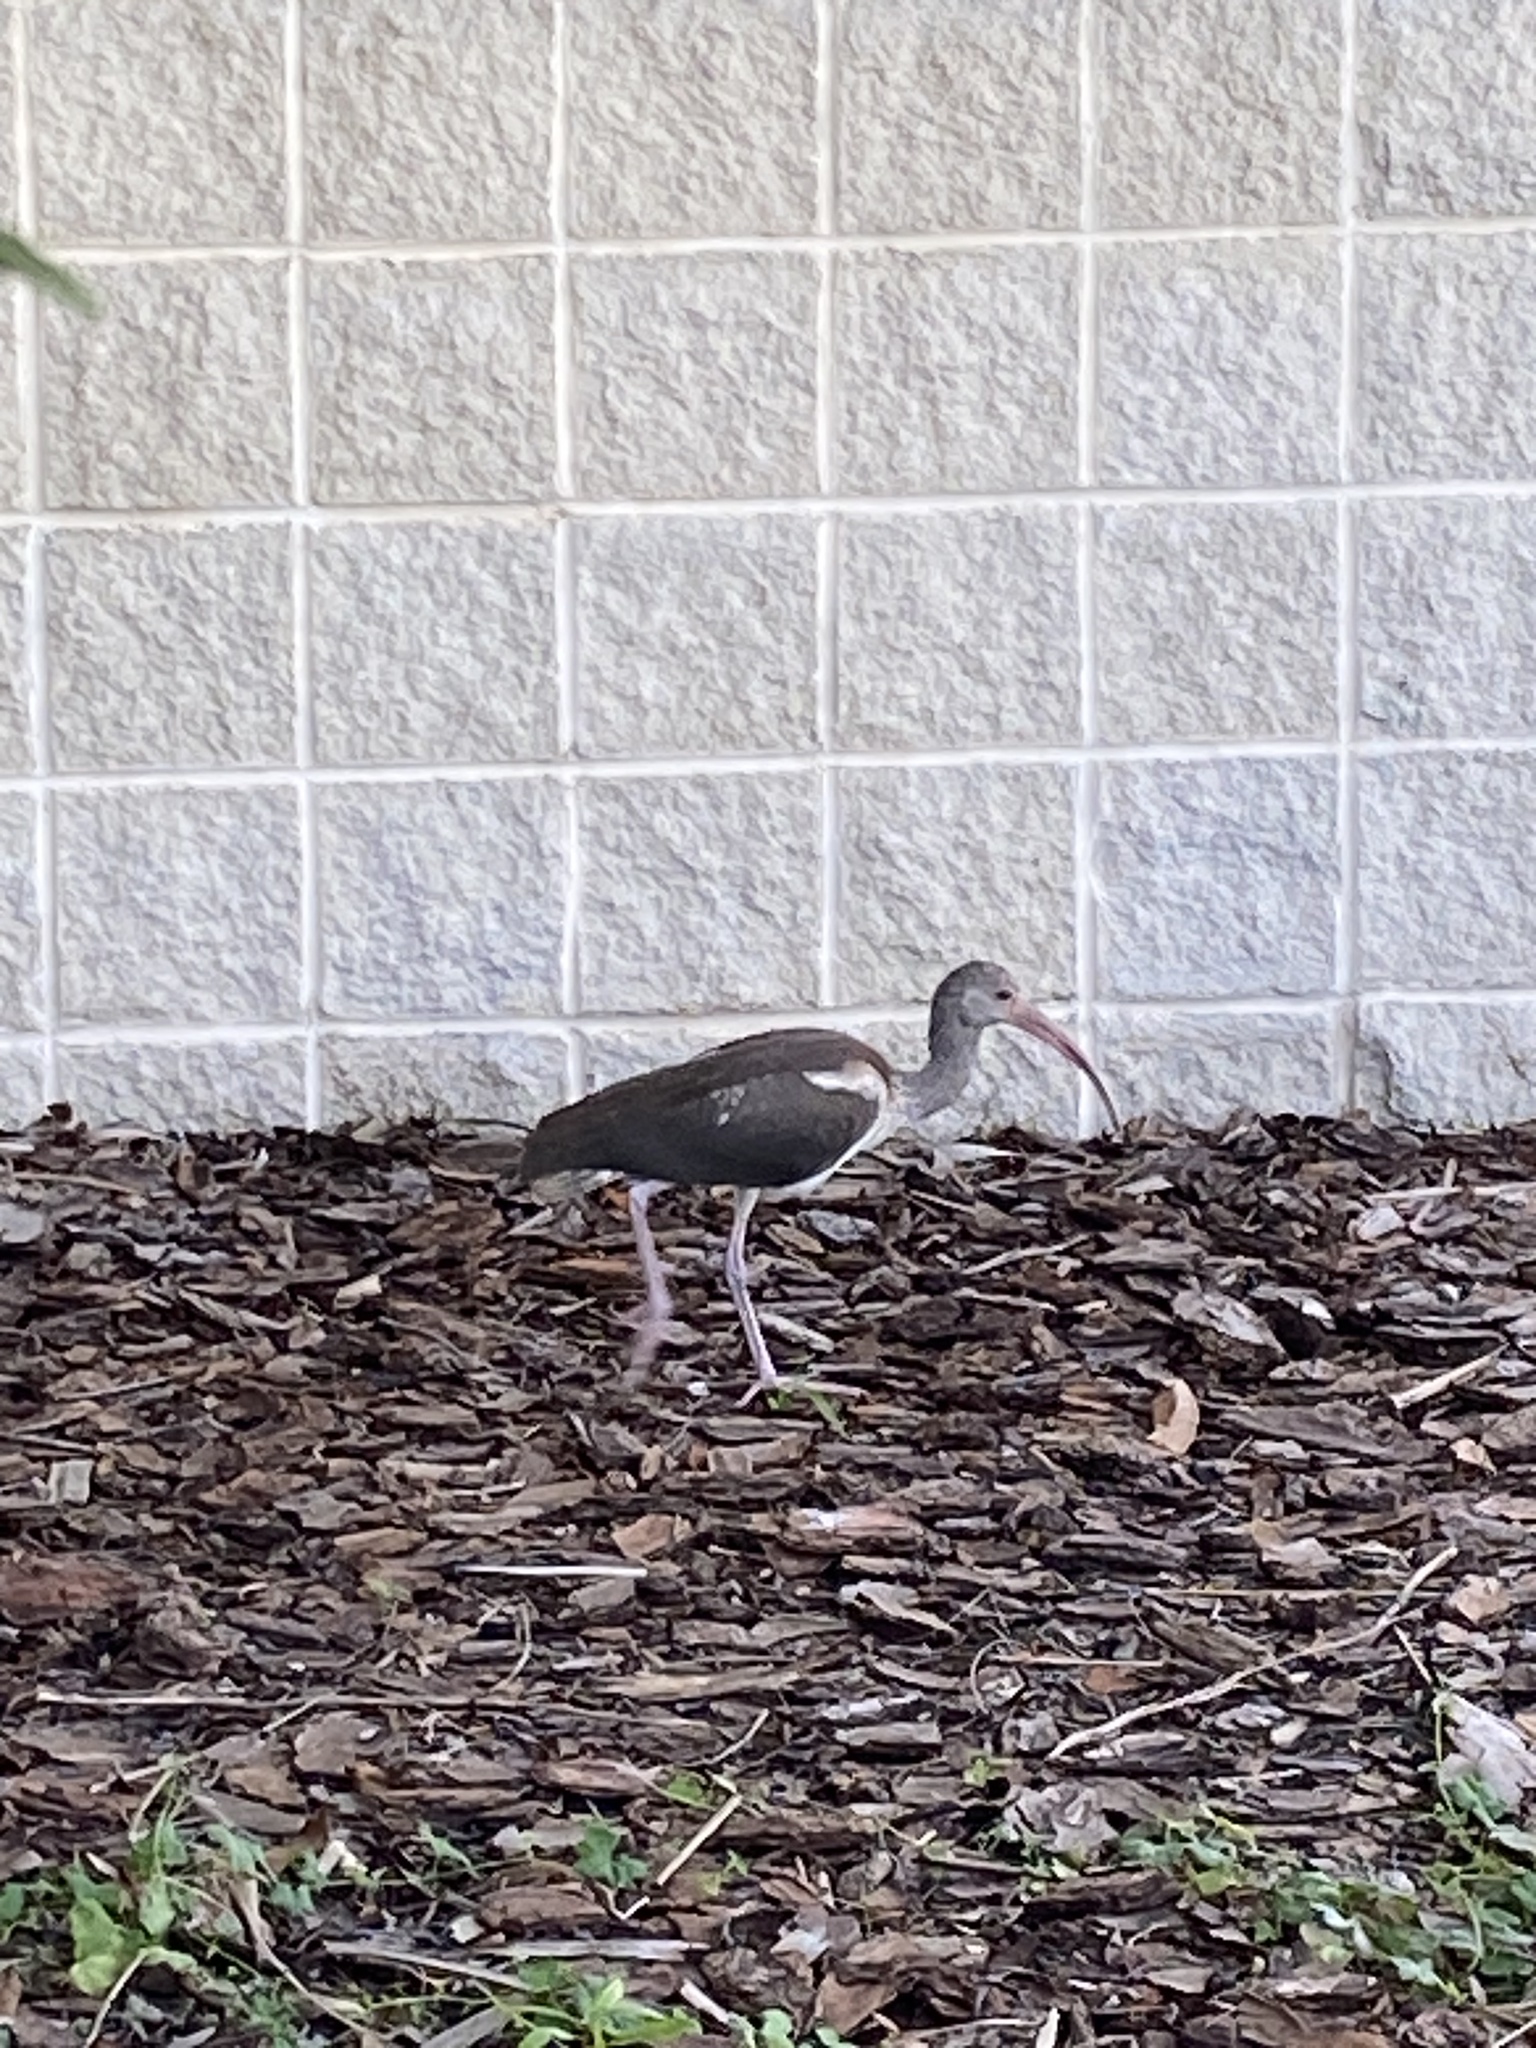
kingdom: Animalia
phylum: Chordata
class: Aves
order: Pelecaniformes
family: Threskiornithidae
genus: Eudocimus
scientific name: Eudocimus albus
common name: White ibis
